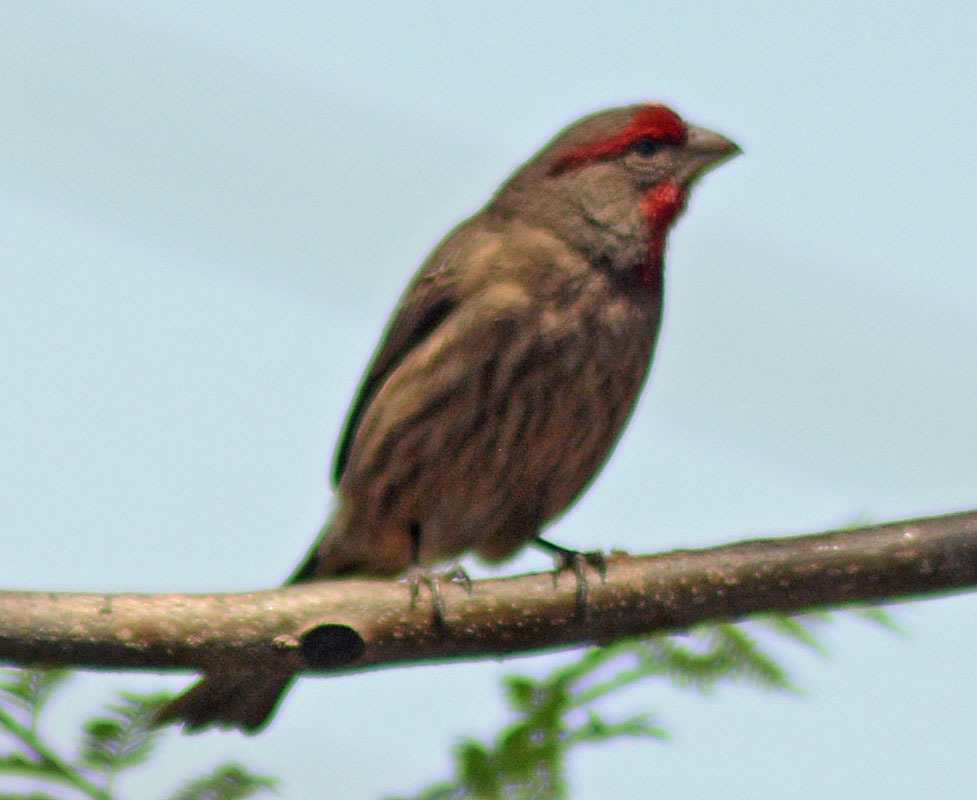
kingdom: Animalia
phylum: Chordata
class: Aves
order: Passeriformes
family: Fringillidae
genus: Haemorhous
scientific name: Haemorhous mexicanus
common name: House finch
